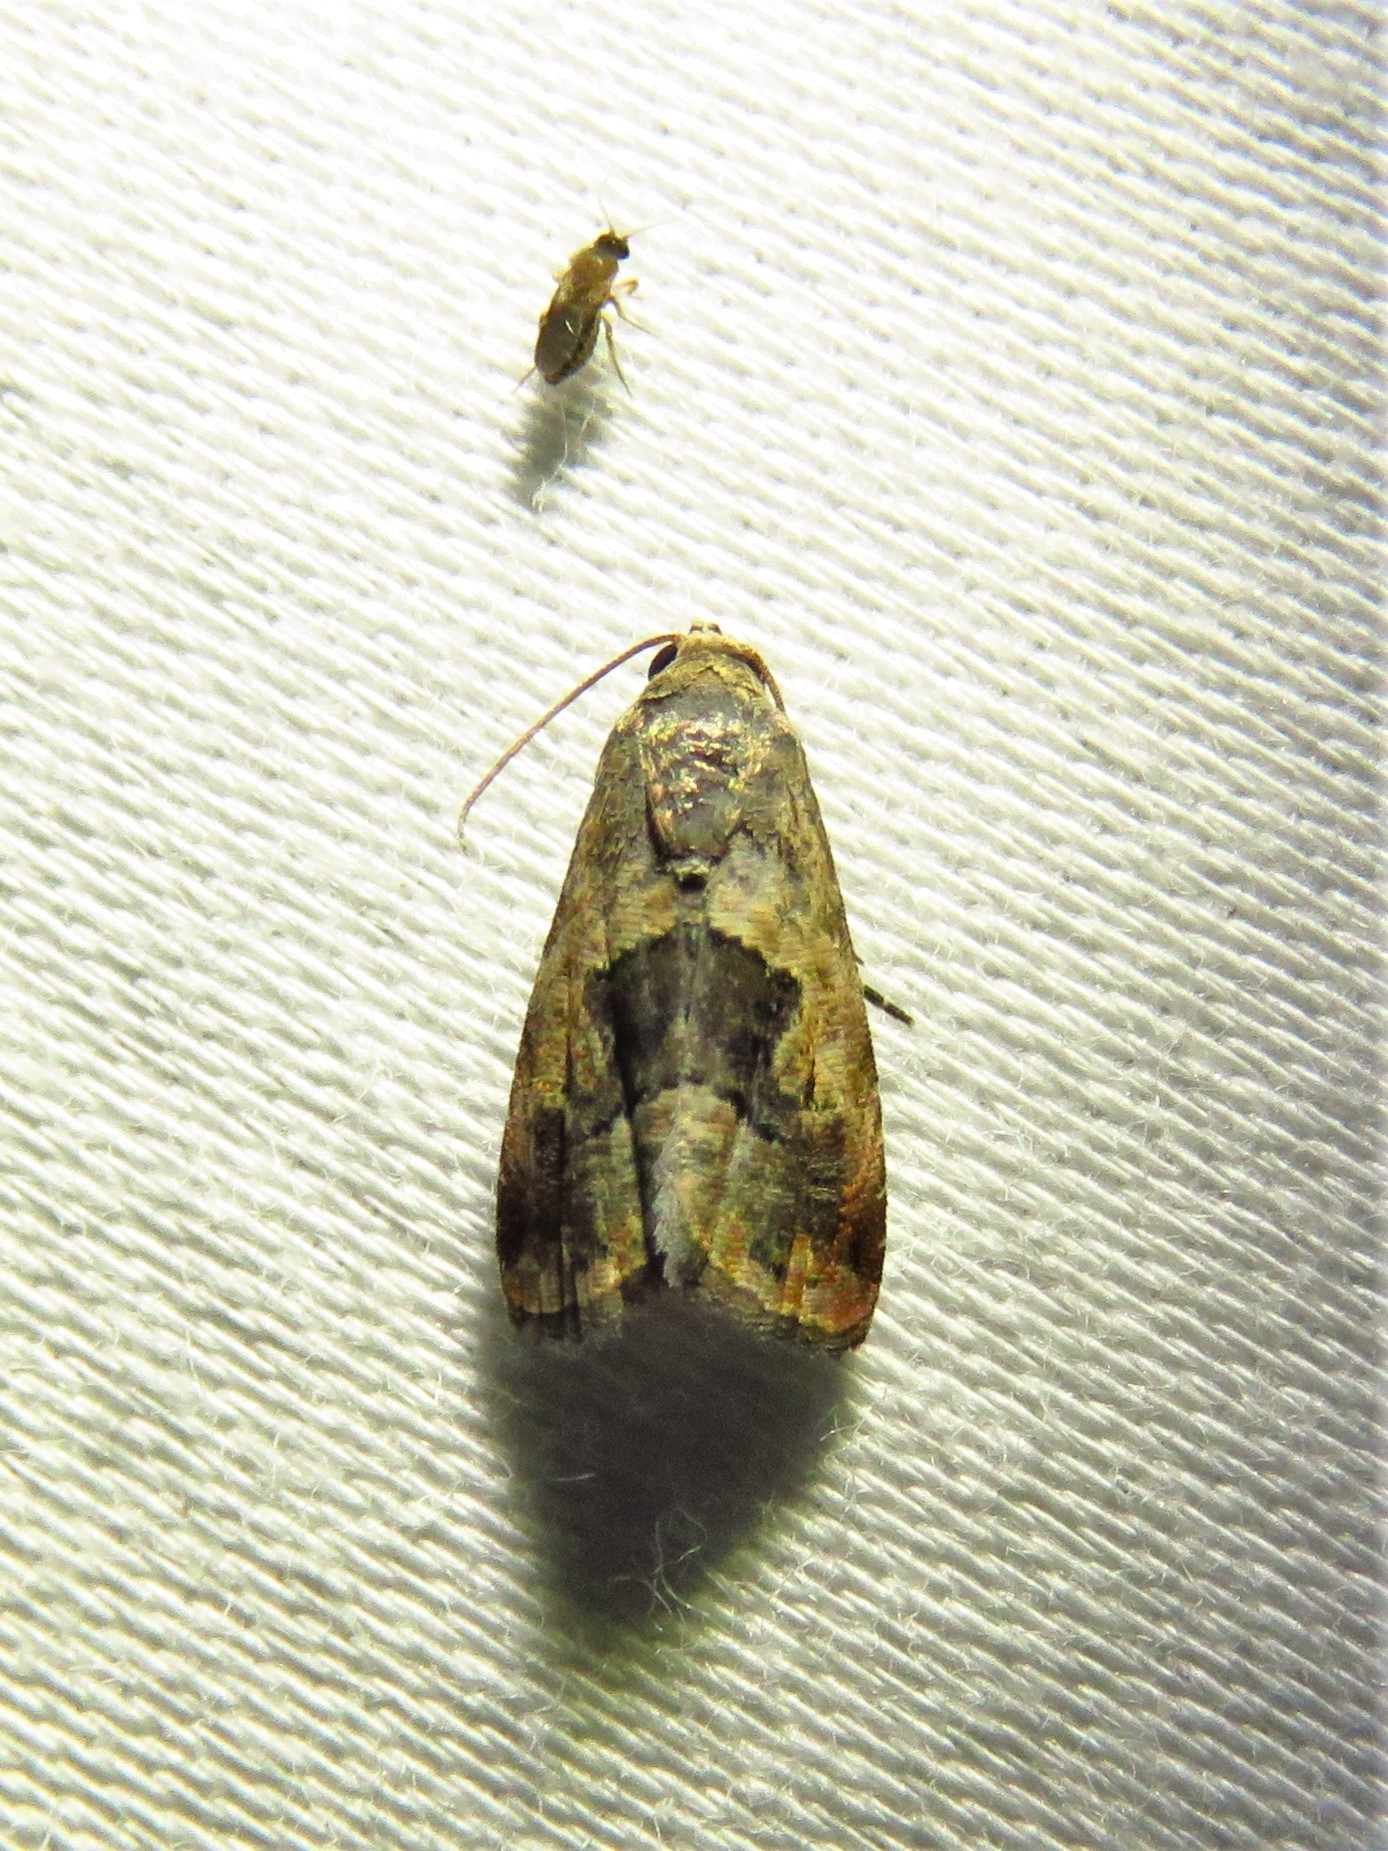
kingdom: Animalia
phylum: Arthropoda
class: Insecta
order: Lepidoptera
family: Noctuidae
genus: Tripudia
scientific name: Tripudia quadrifera
